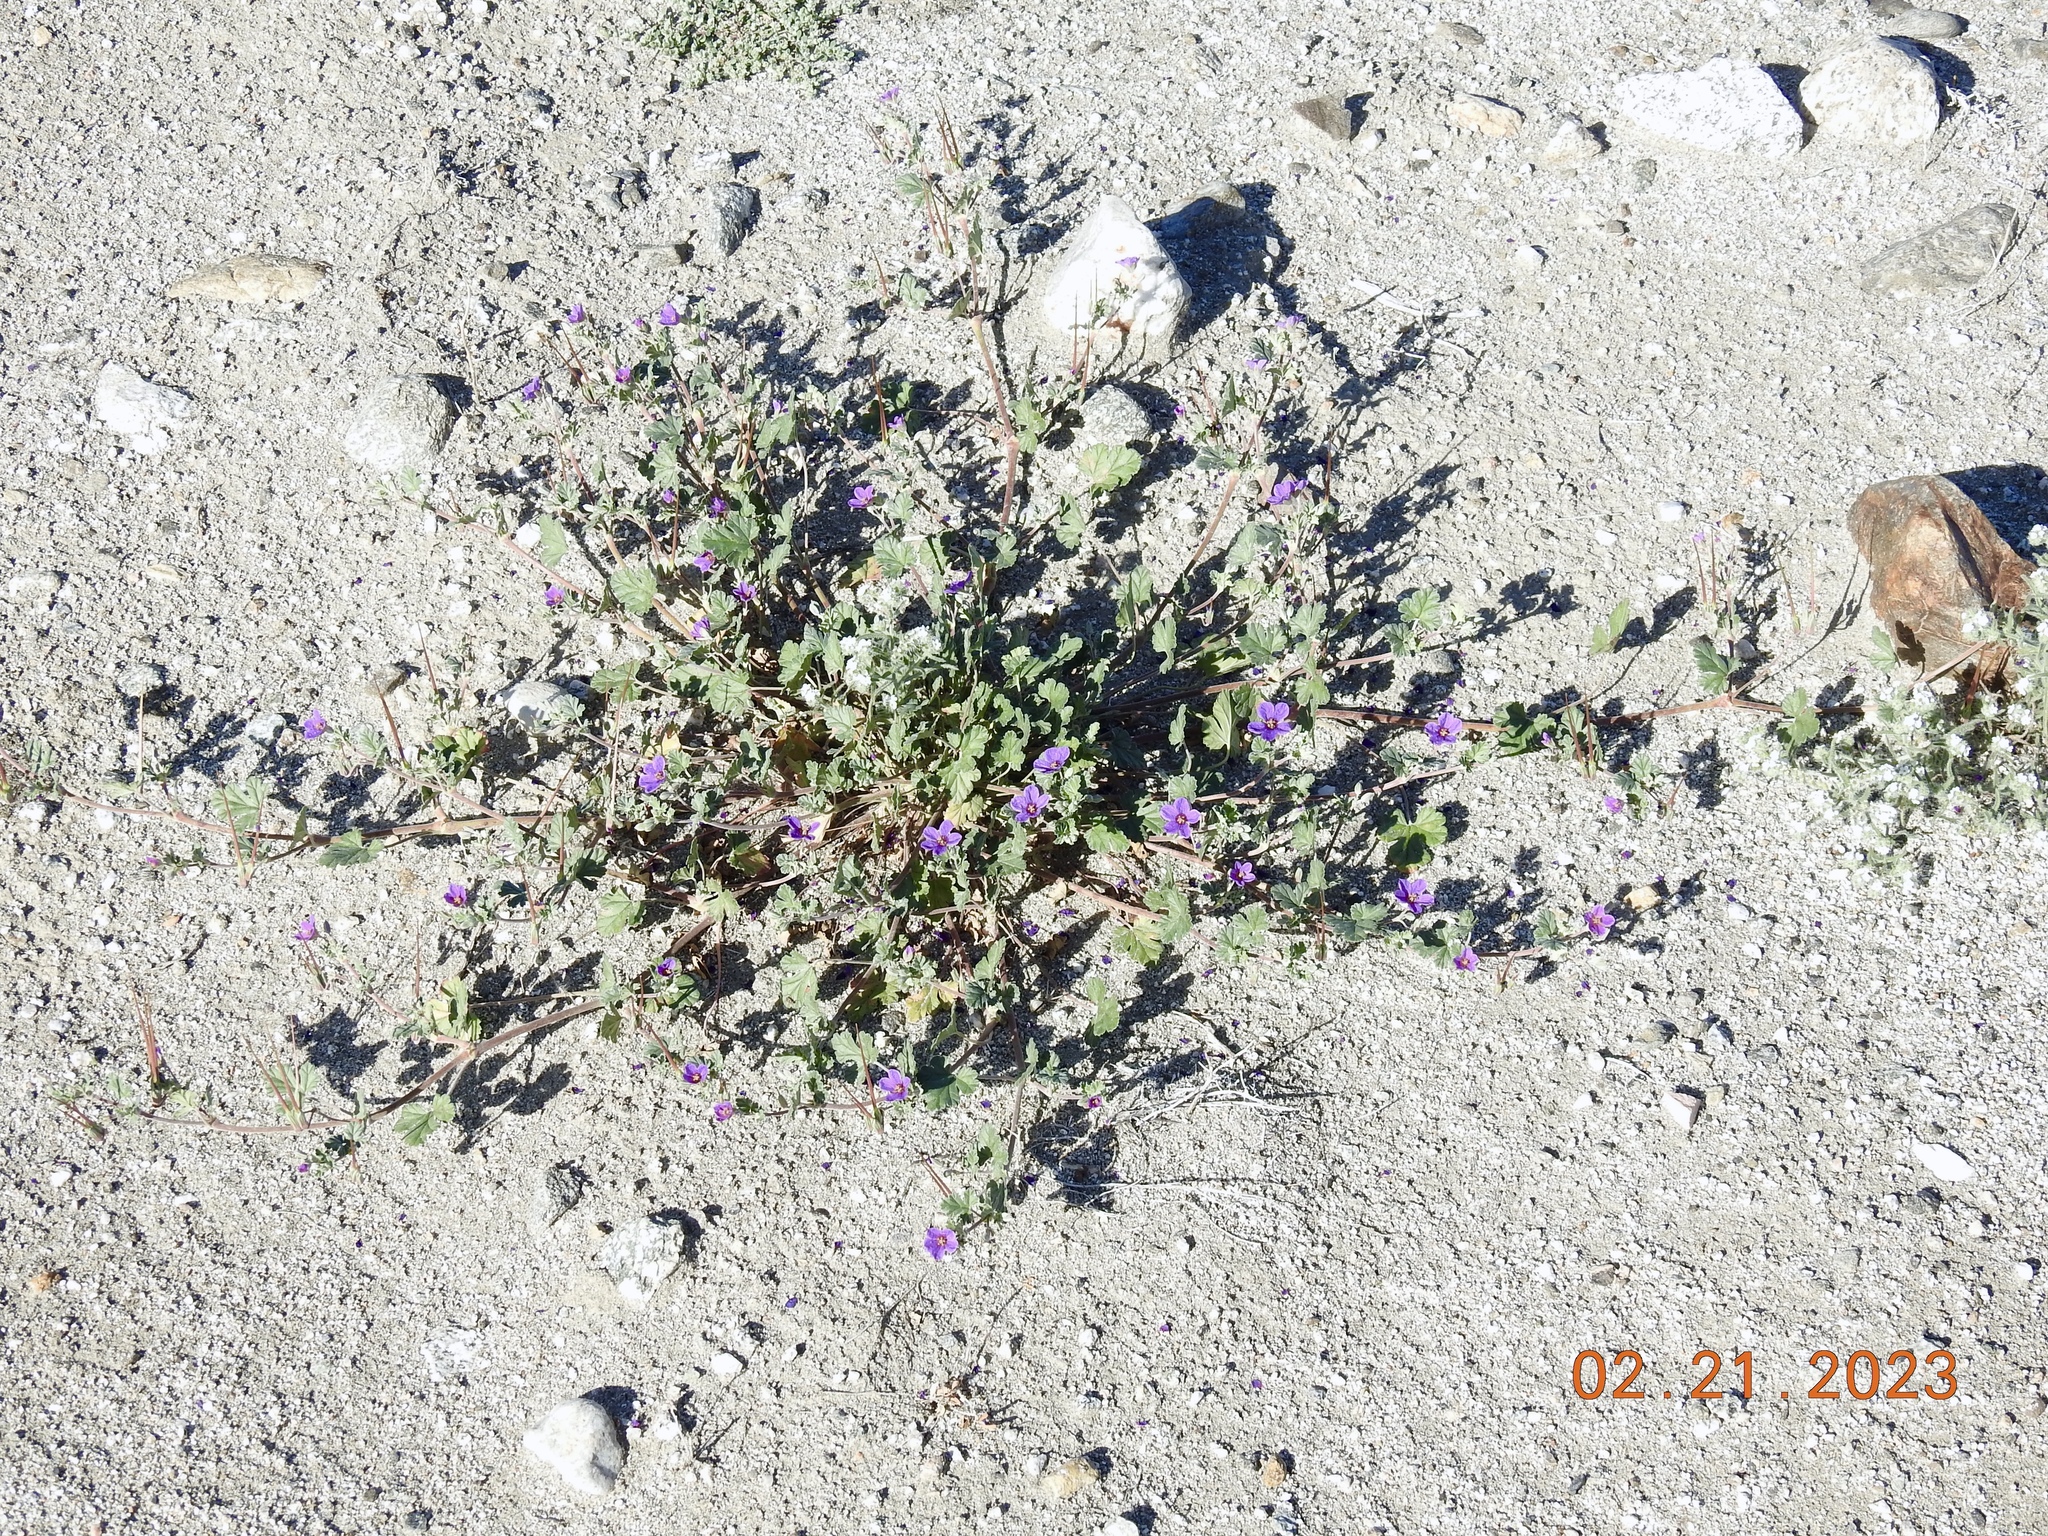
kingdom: Plantae
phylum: Tracheophyta
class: Magnoliopsida
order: Geraniales
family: Geraniaceae
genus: Erodium
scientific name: Erodium texanum
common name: Texas stork's-bill
